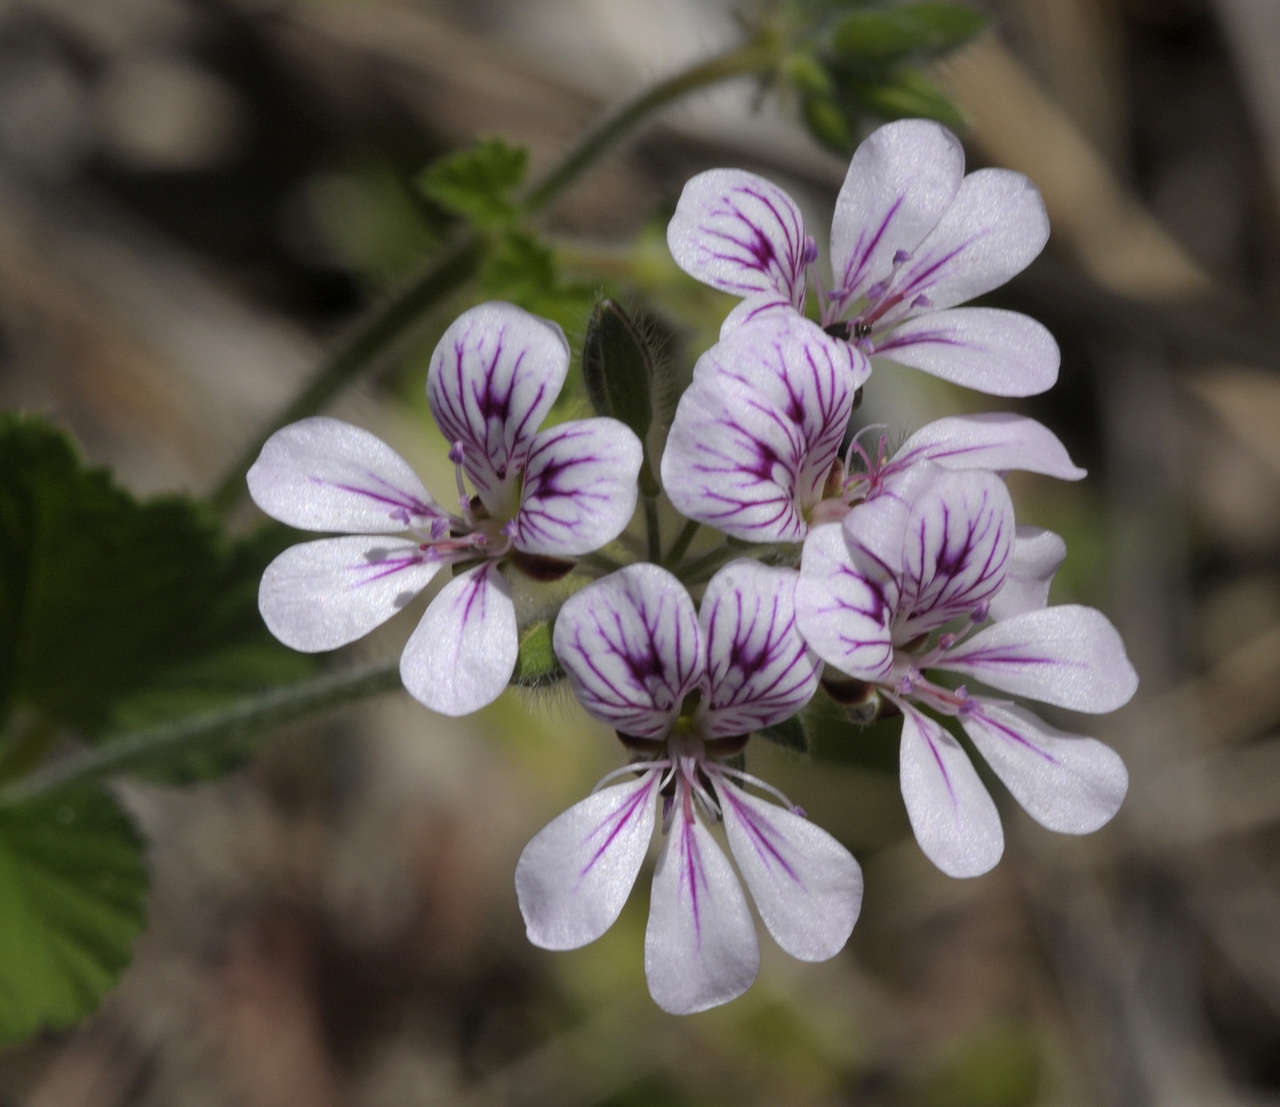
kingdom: Plantae
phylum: Tracheophyta
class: Magnoliopsida
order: Geraniales
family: Geraniaceae
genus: Pelargonium
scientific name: Pelargonium australe
